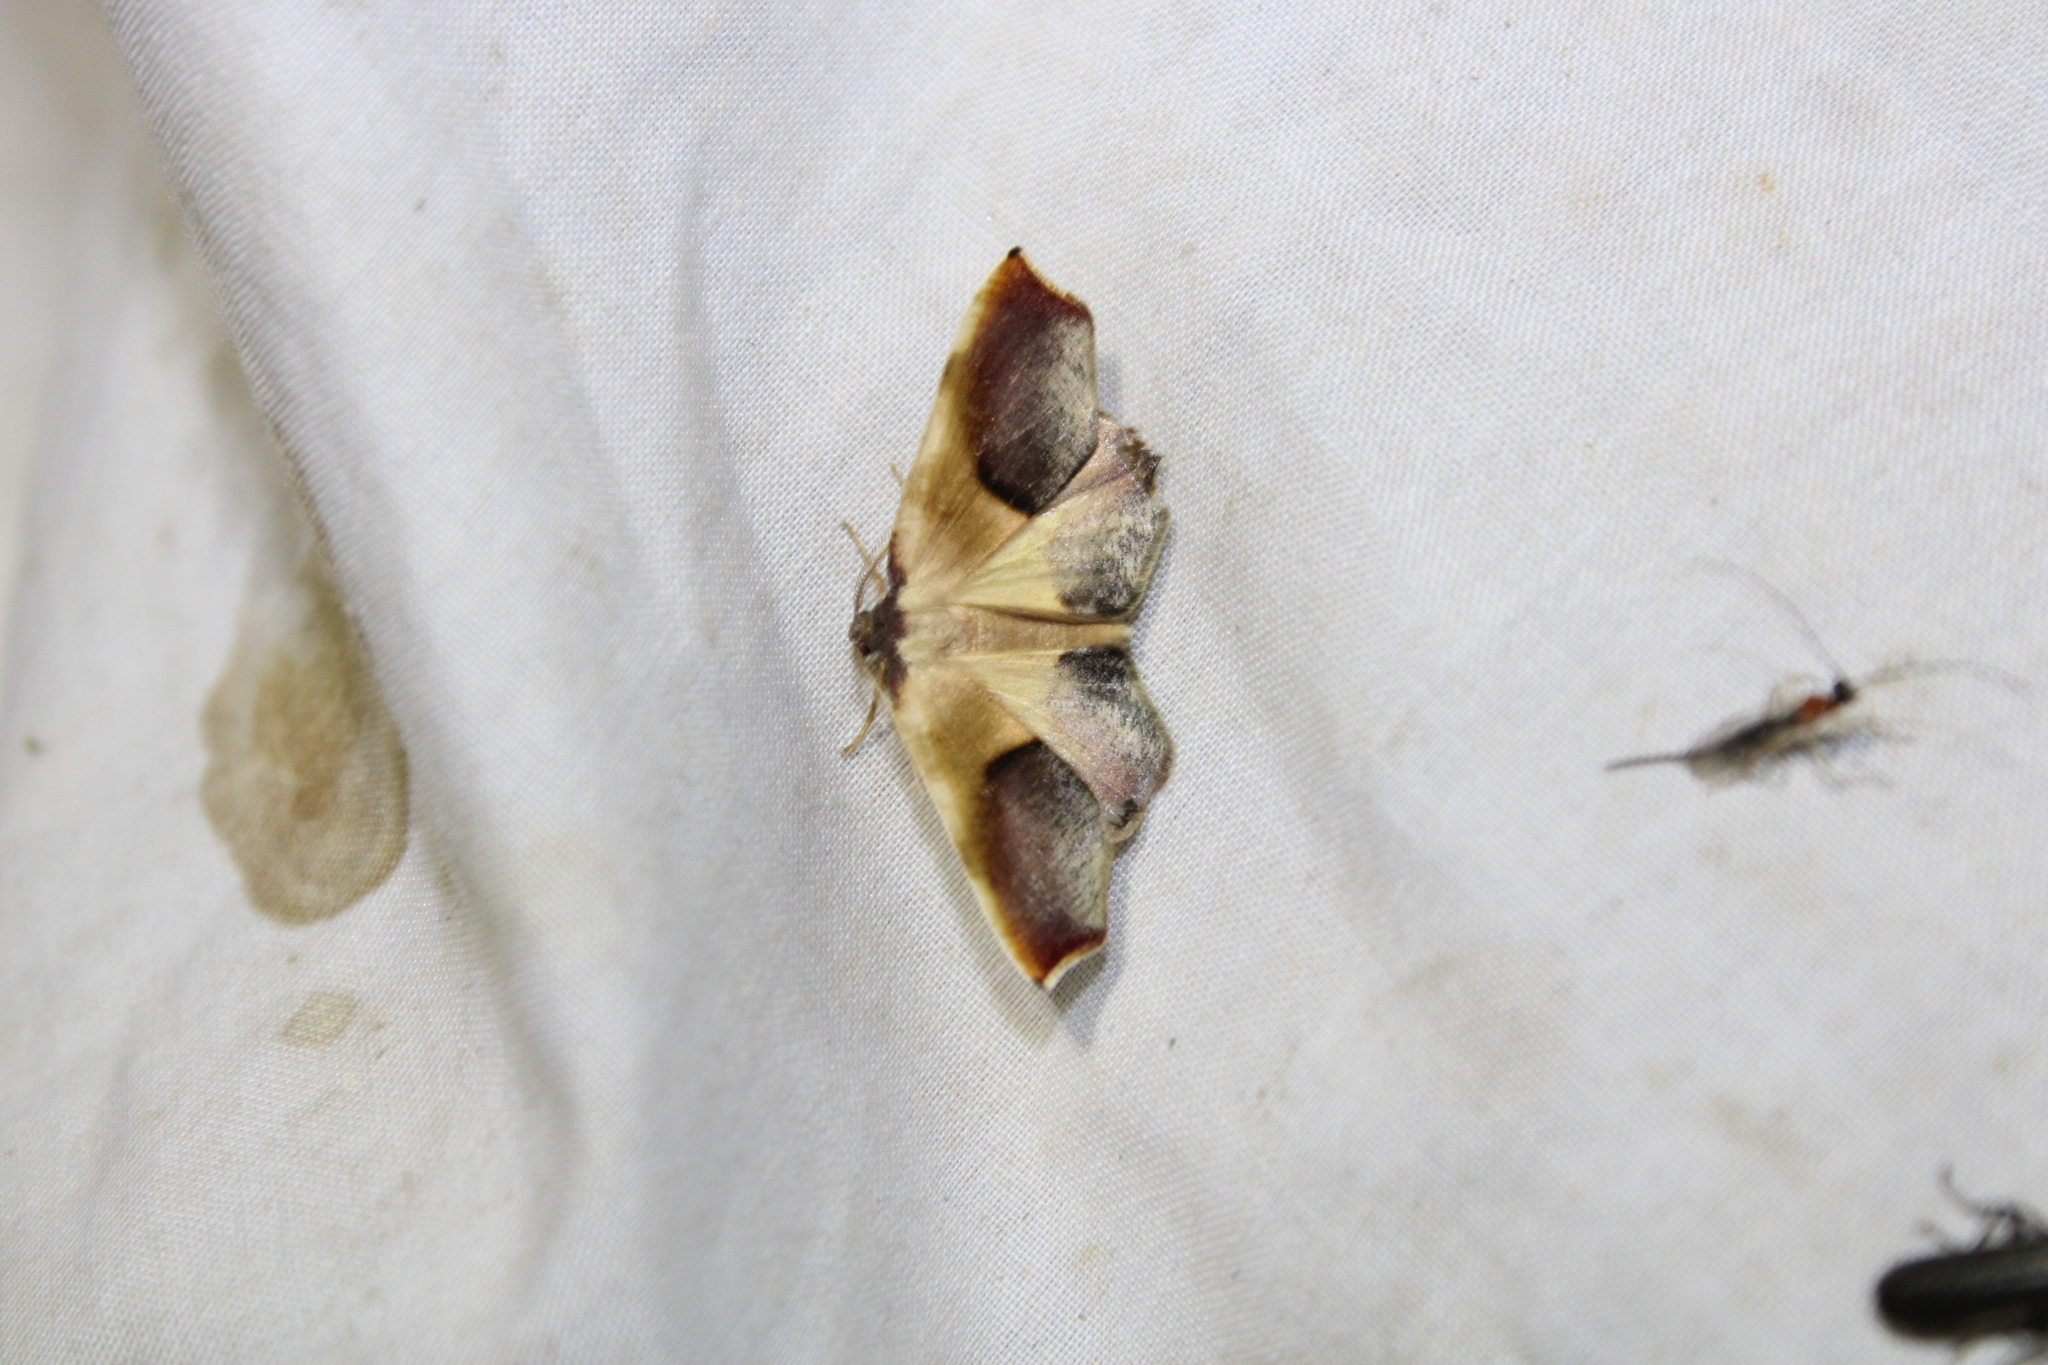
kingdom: Animalia
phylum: Arthropoda
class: Insecta
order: Lepidoptera
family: Geometridae
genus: Plagodis
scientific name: Plagodis kuetzingi
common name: Purple plagodis
